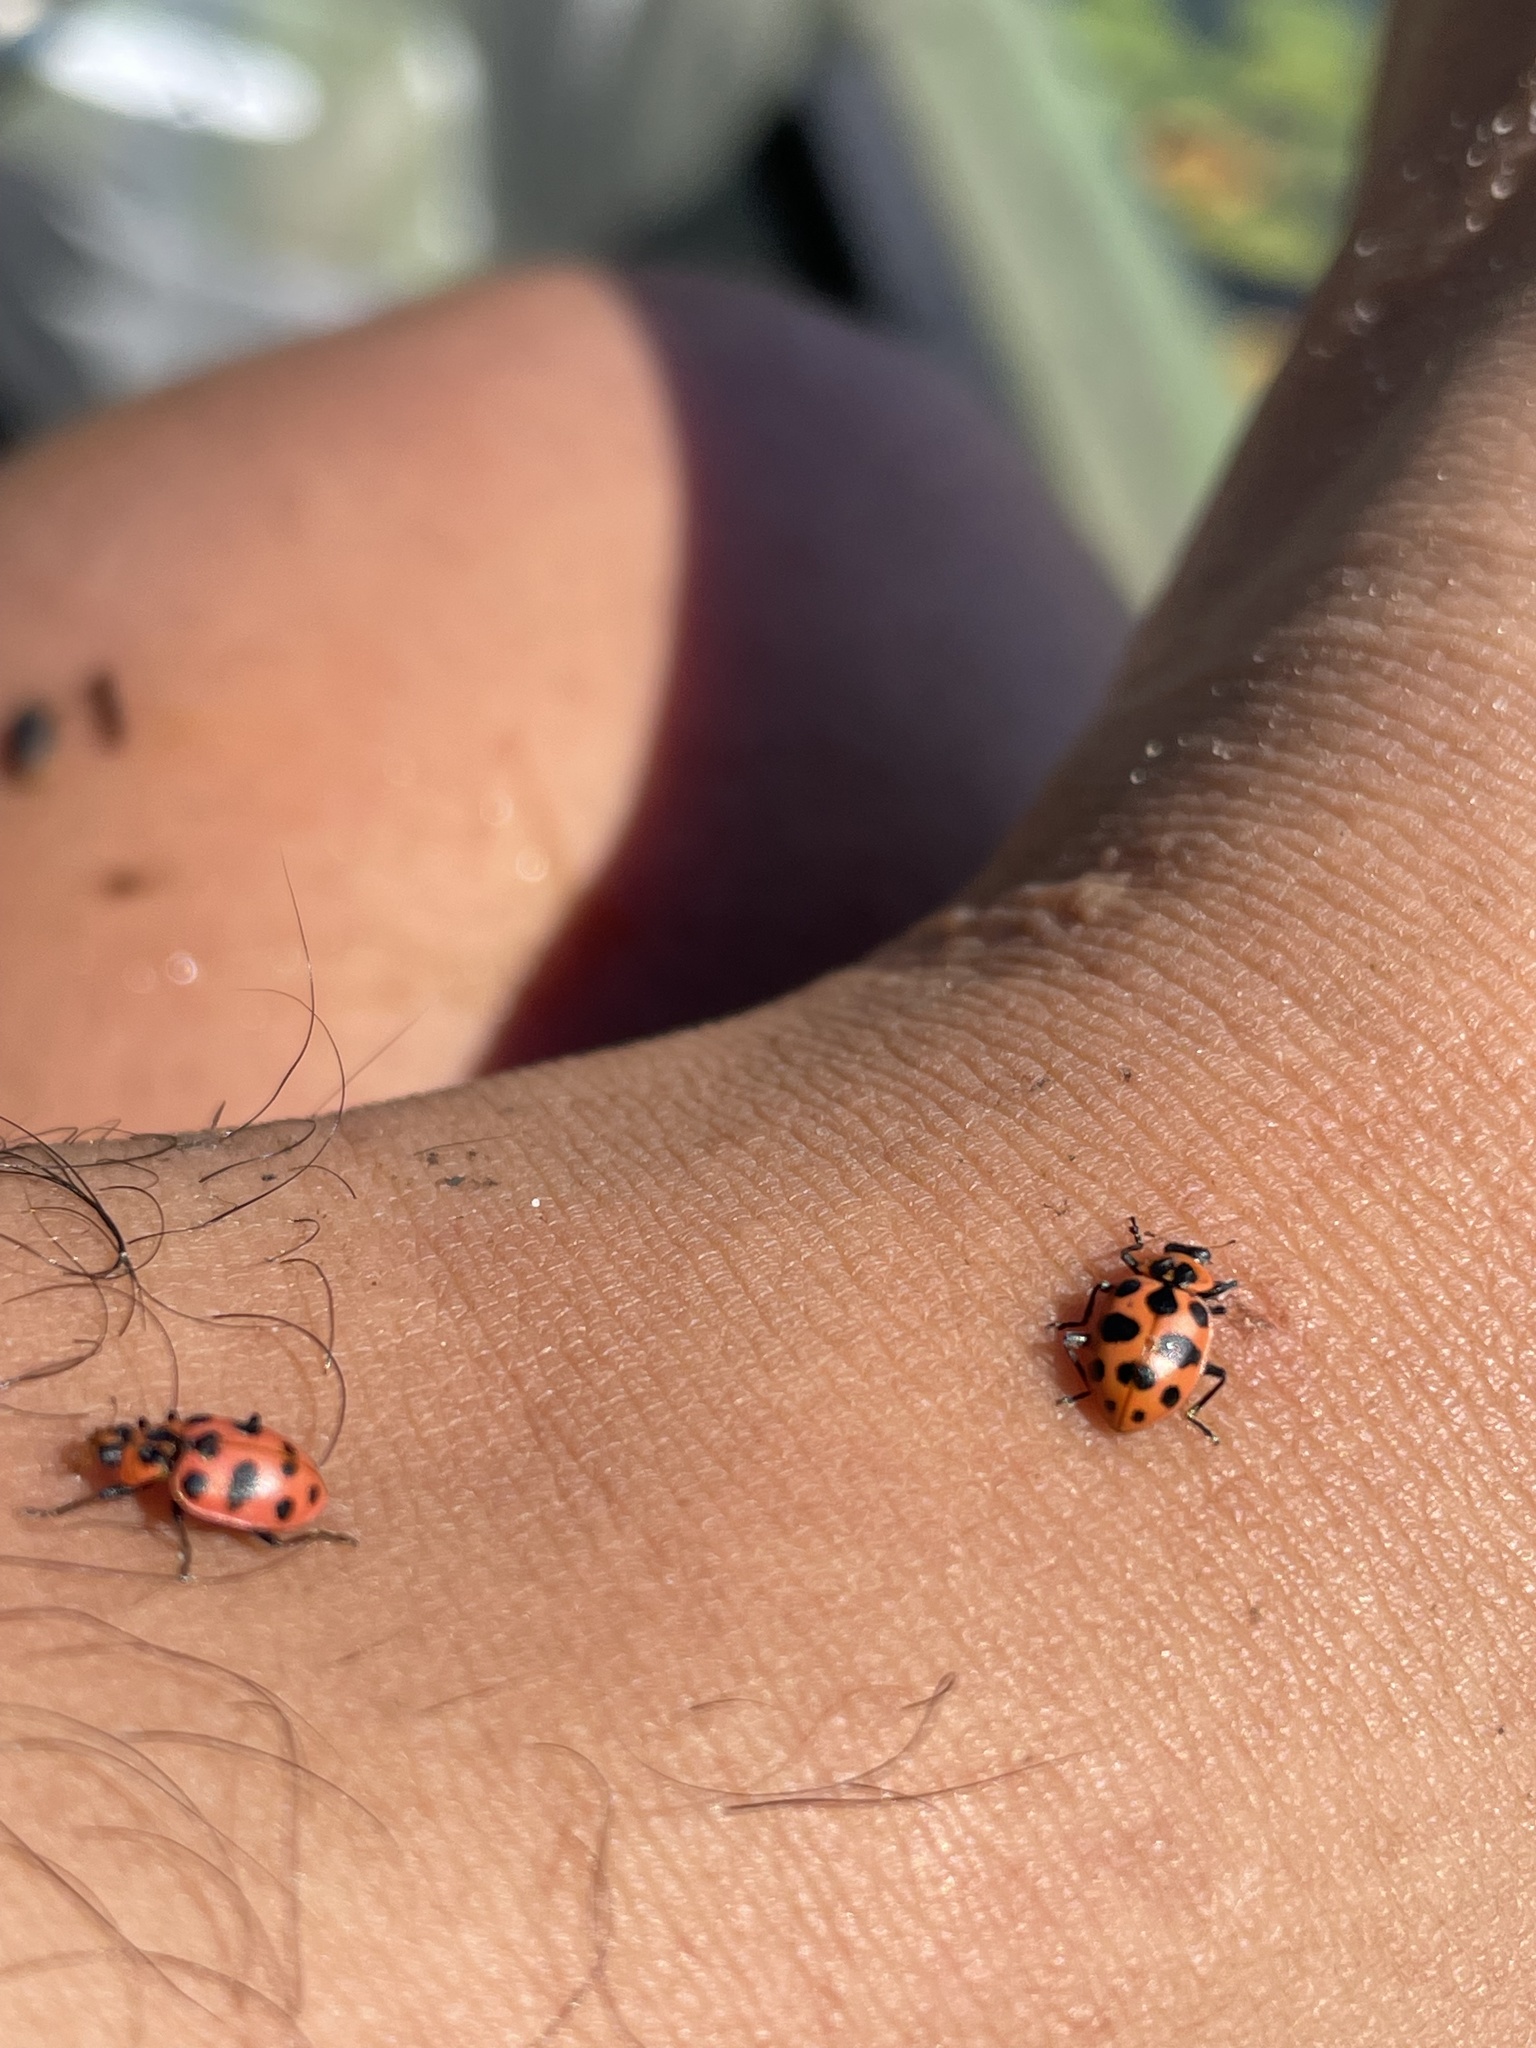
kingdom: Animalia
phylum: Arthropoda
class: Insecta
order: Coleoptera
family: Coccinellidae
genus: Coleomegilla
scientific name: Coleomegilla maculata
